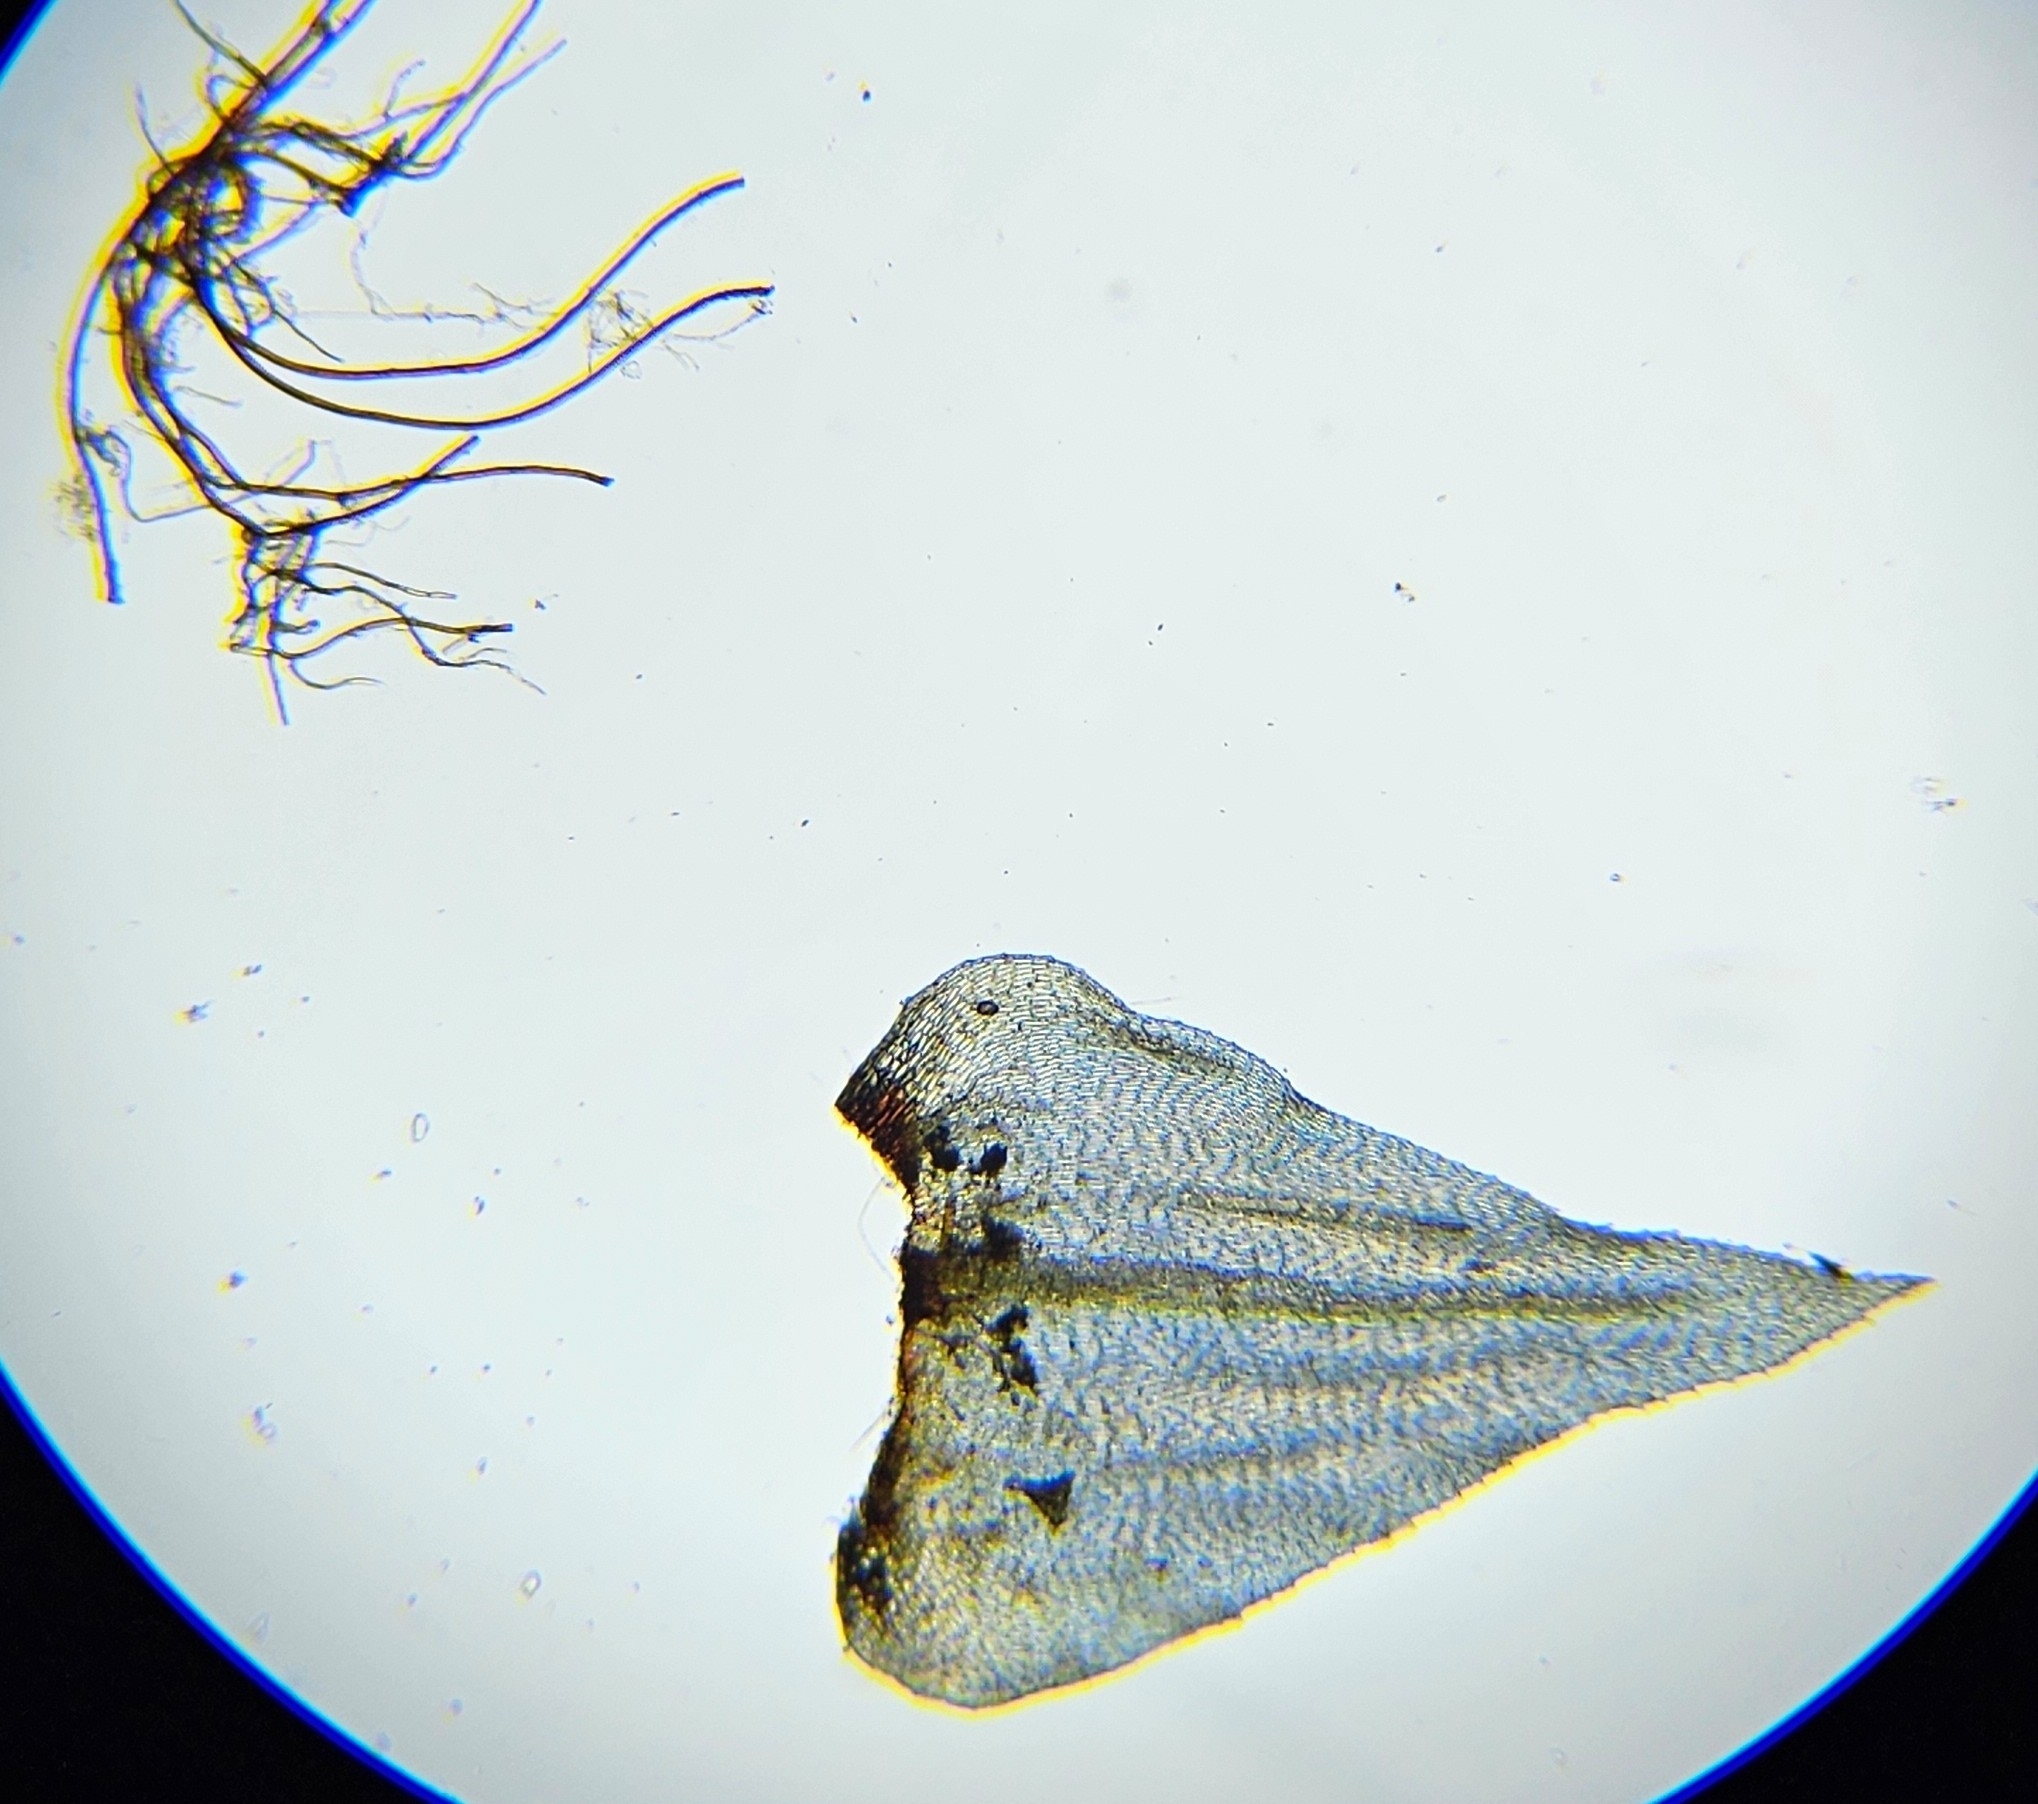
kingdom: Plantae
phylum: Bryophyta
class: Bryopsida
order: Hypnales
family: Brachytheciaceae
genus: Eurhynchium
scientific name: Eurhynchium striatum
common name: Common striated feather-moss
